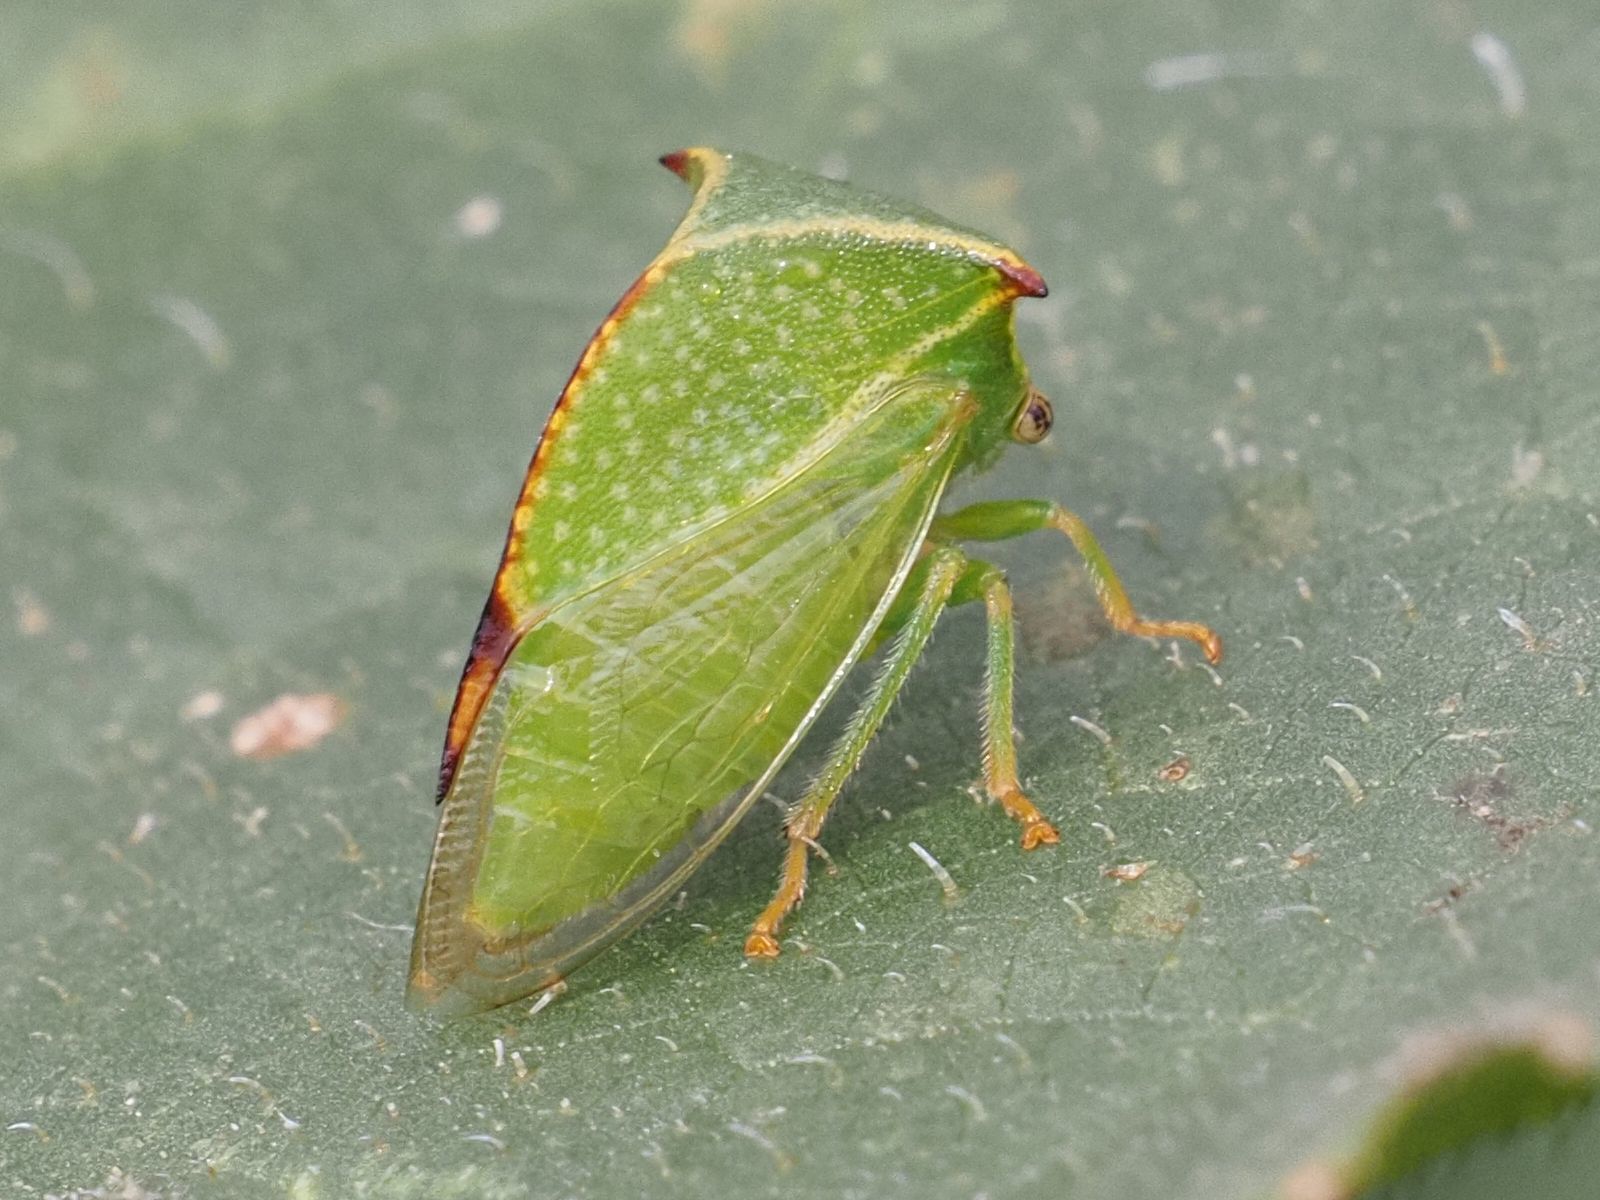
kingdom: Animalia
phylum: Arthropoda
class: Insecta
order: Hemiptera
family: Membracidae
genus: Stictocephala
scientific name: Stictocephala bisonia
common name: American buffalo treehopper
